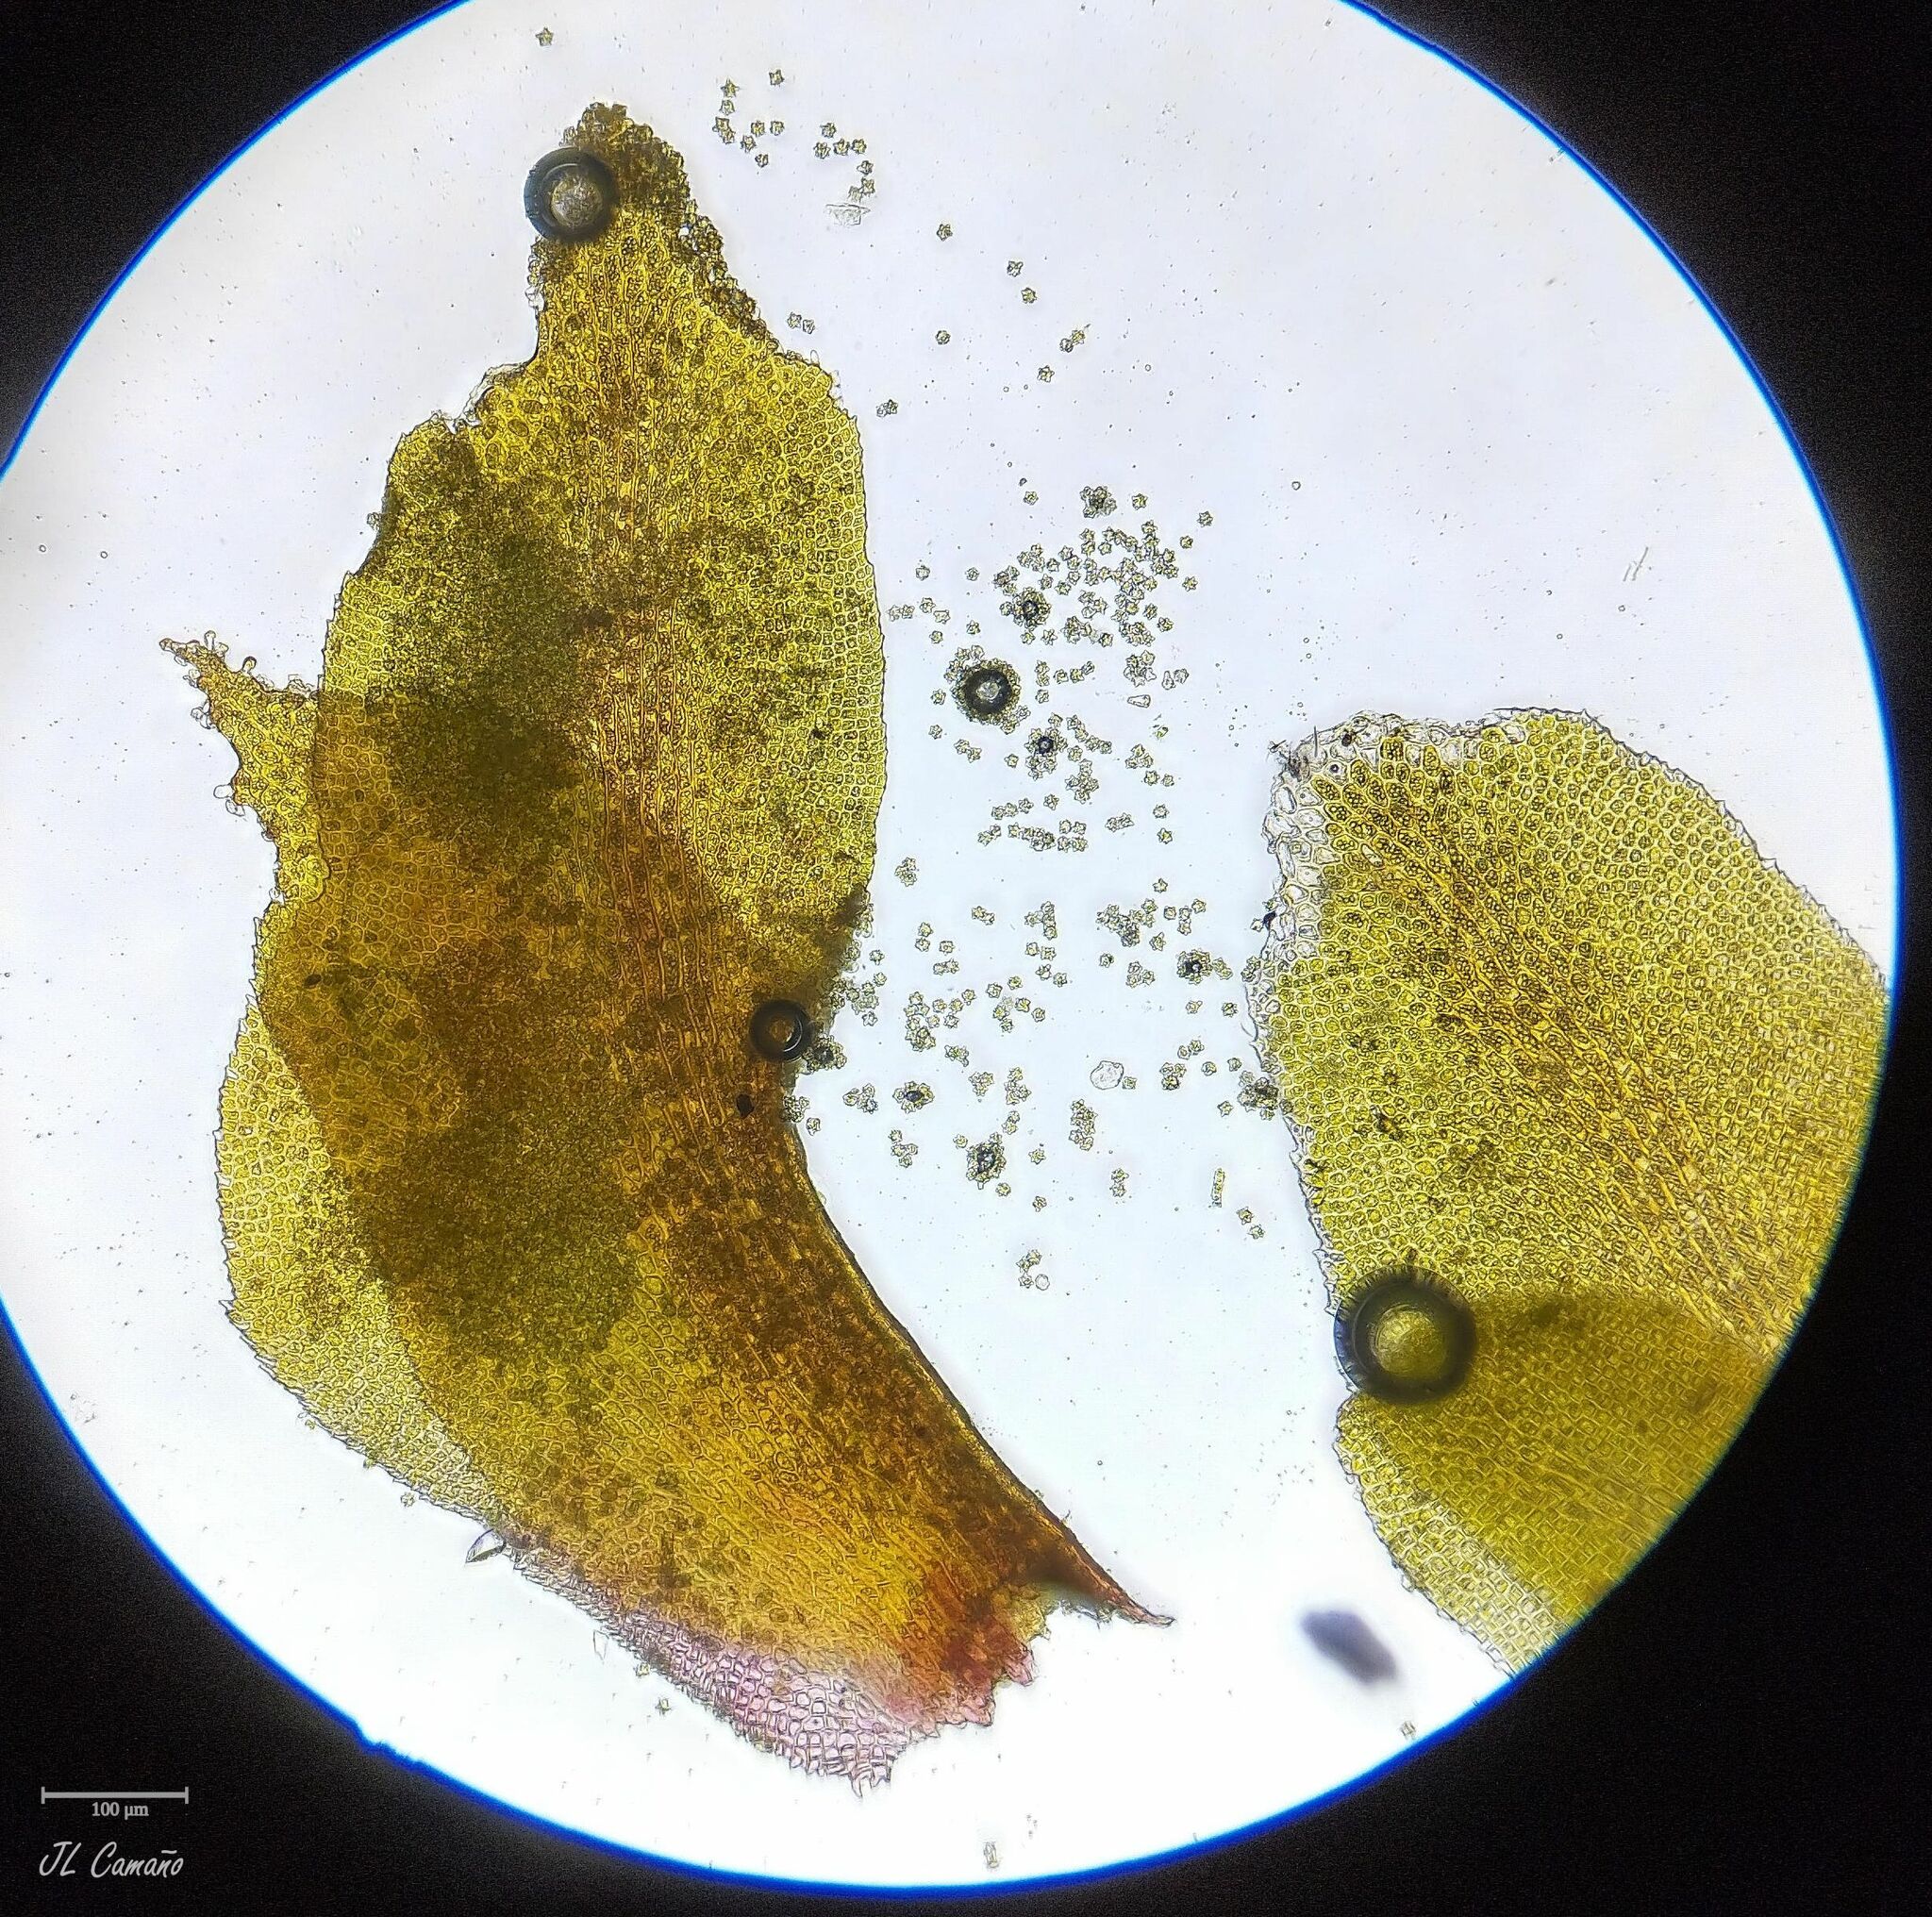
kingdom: Plantae
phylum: Marchantiophyta
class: Jungermanniopsida
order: Jungermanniales
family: Scapaniaceae
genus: Diplophyllum
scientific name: Diplophyllum albicans
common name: White earwort
